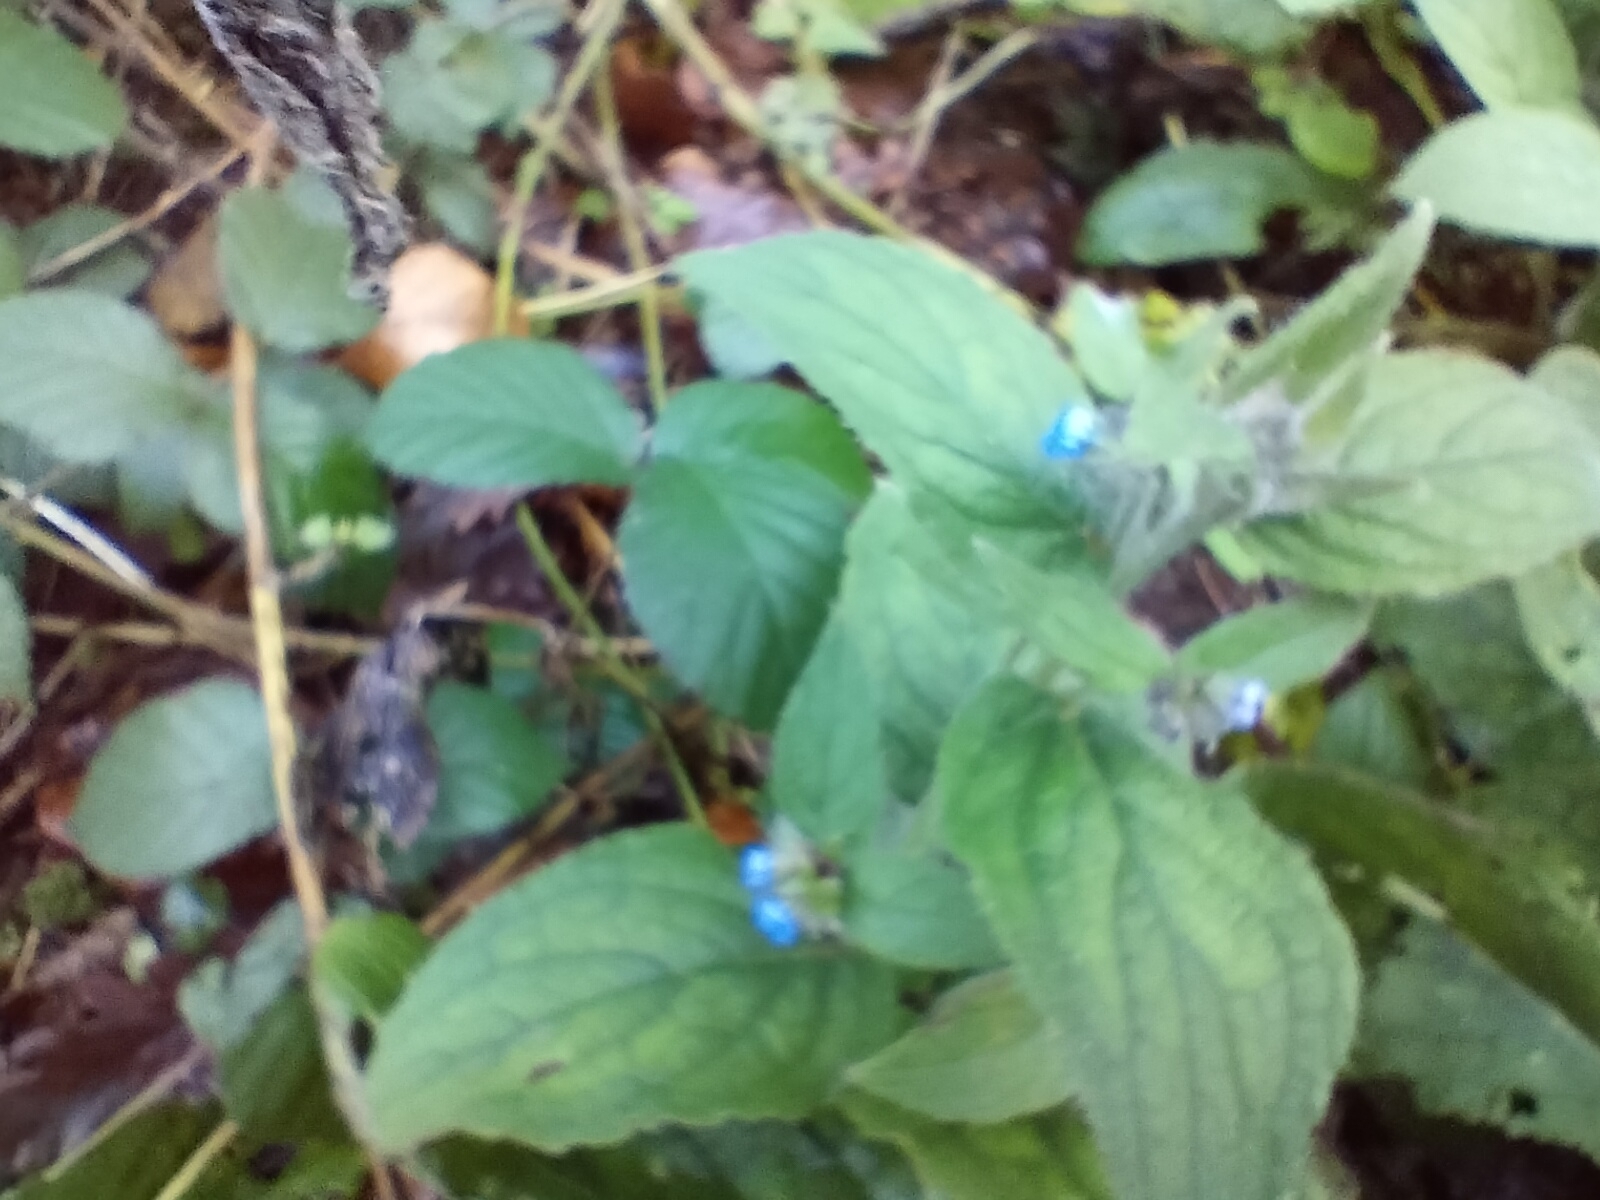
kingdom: Plantae
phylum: Tracheophyta
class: Magnoliopsida
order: Boraginales
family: Boraginaceae
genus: Pentaglottis
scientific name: Pentaglottis sempervirens
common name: Green alkanet
